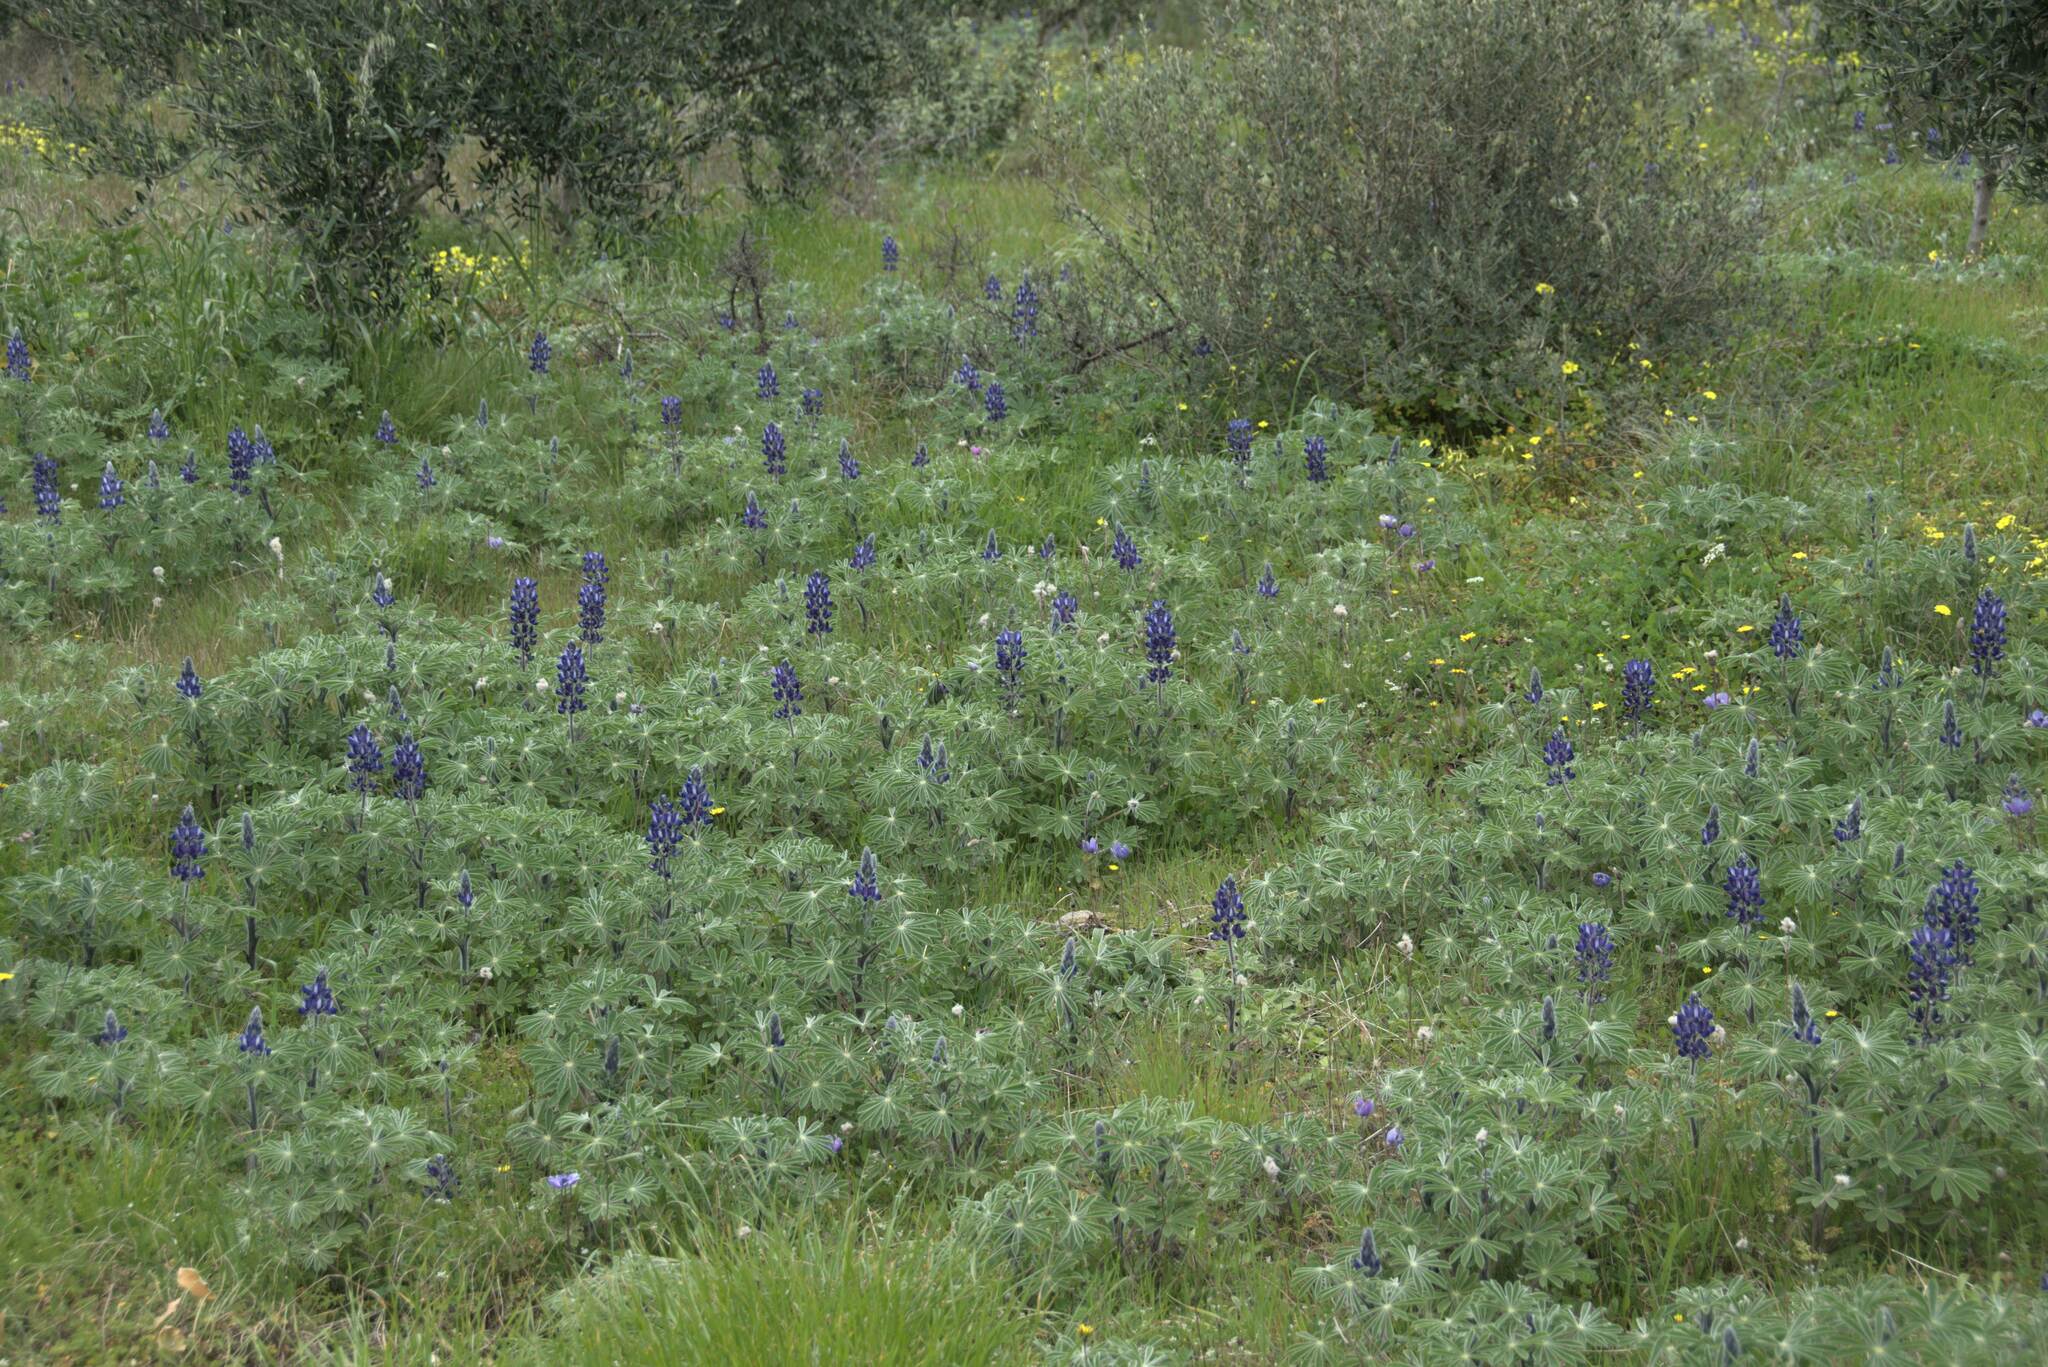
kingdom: Plantae
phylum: Tracheophyta
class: Magnoliopsida
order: Fabales
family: Fabaceae
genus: Lupinus
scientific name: Lupinus pilosus
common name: Blue lupine
